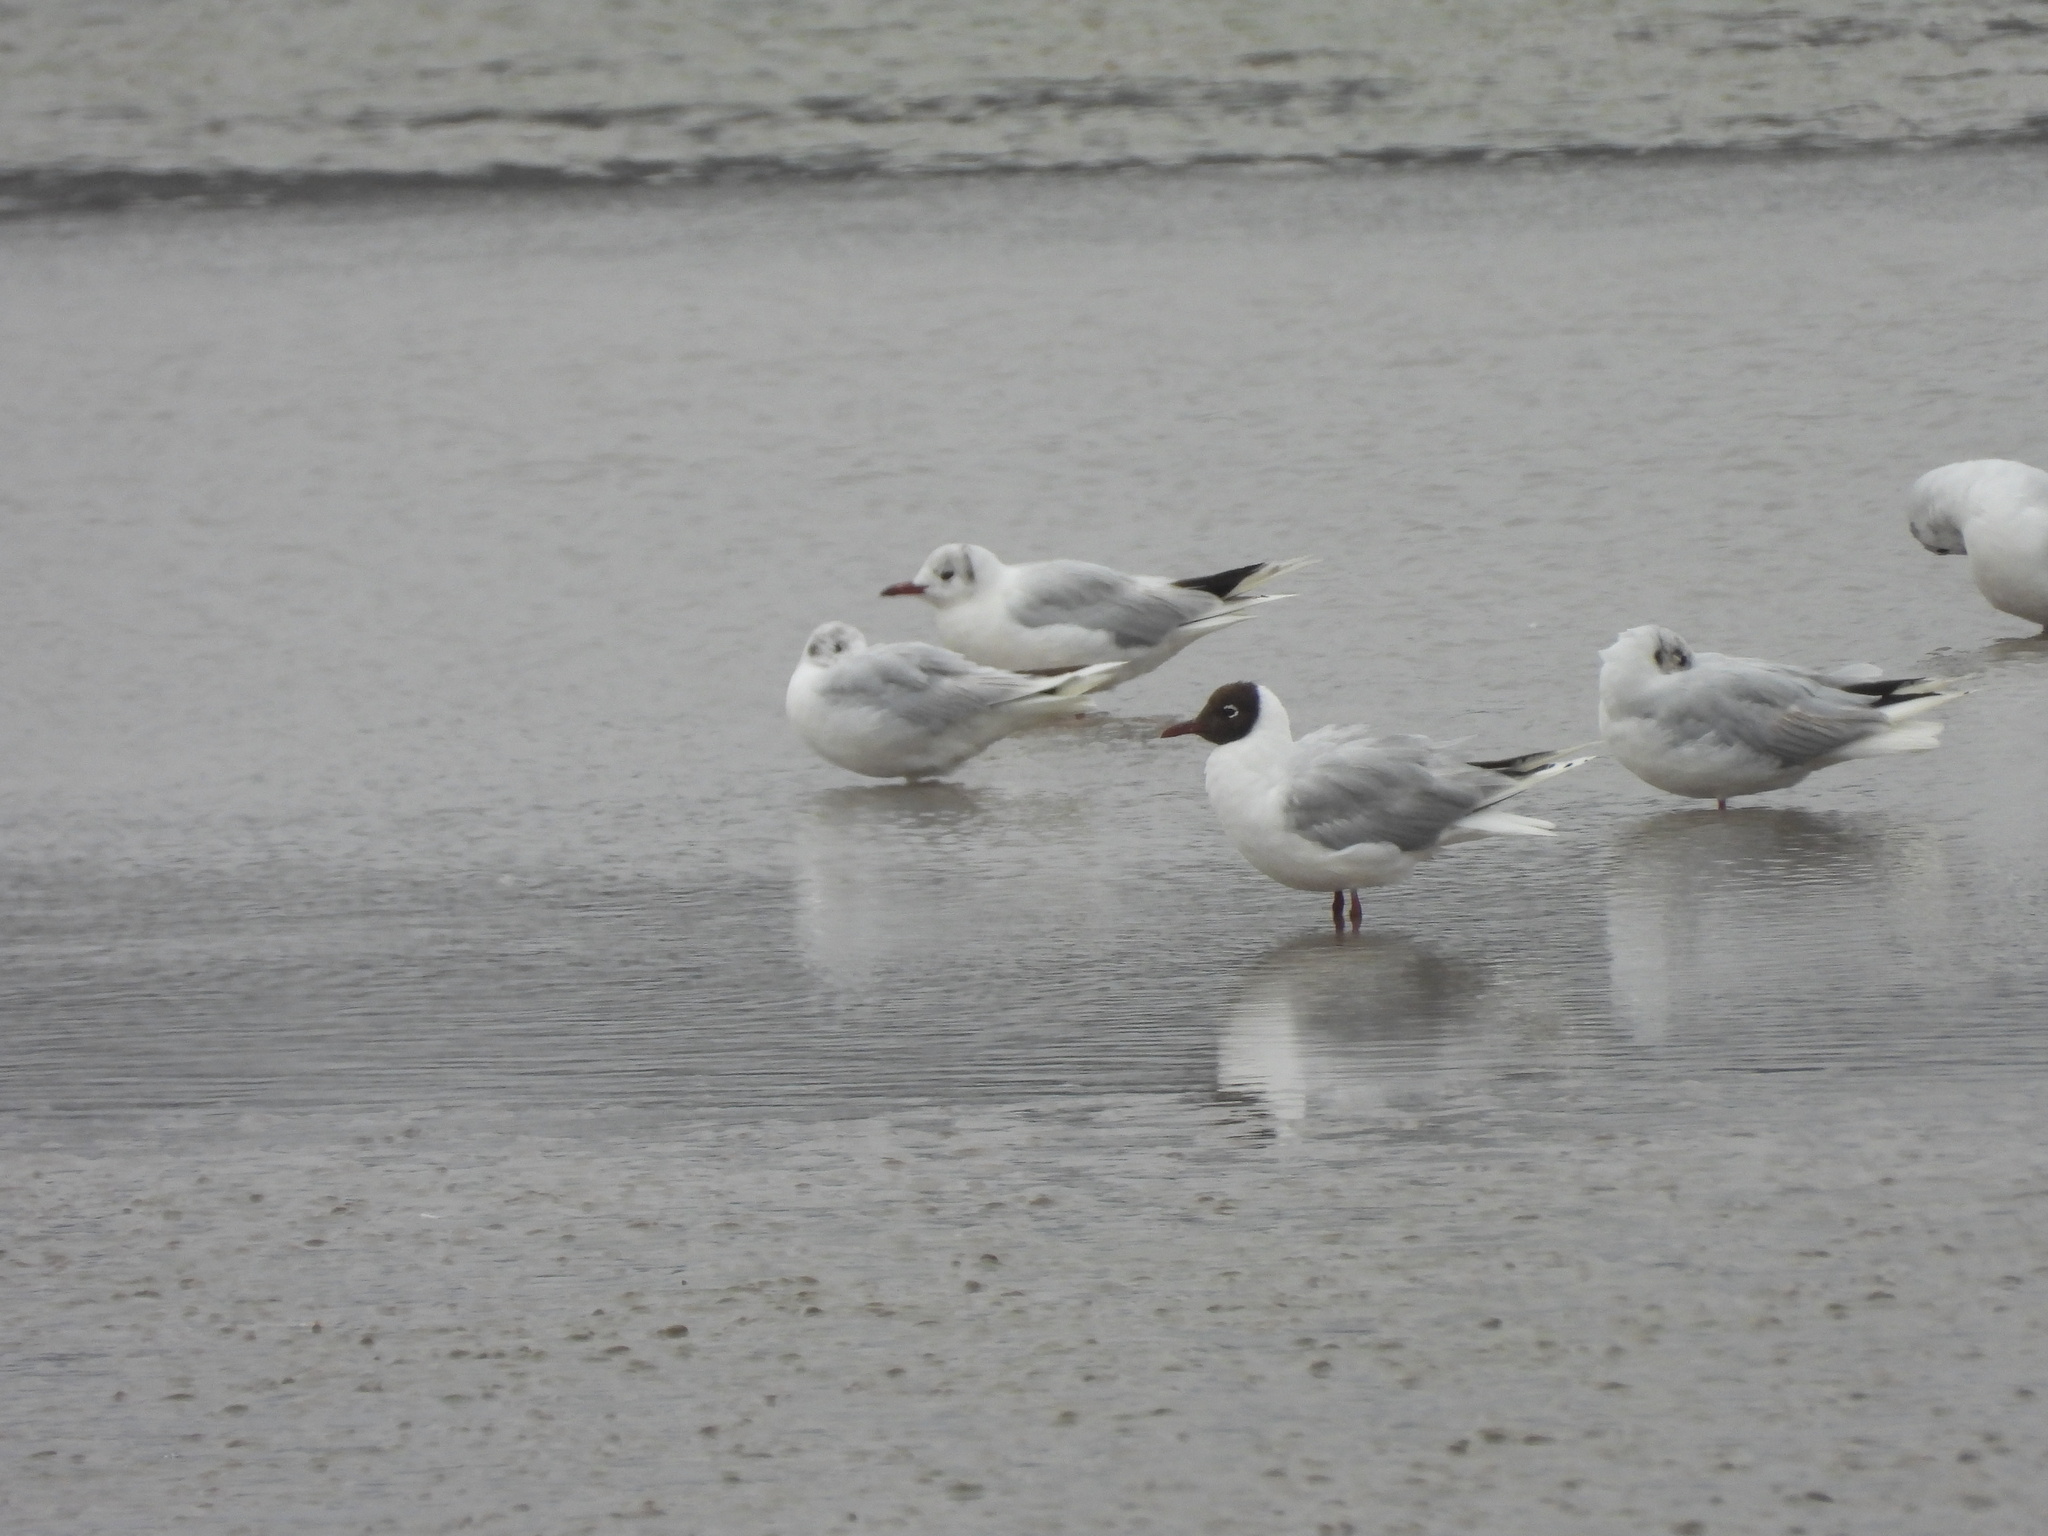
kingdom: Animalia
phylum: Chordata
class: Aves
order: Charadriiformes
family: Laridae
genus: Chroicocephalus
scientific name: Chroicocephalus maculipennis
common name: Brown-hooded gull
